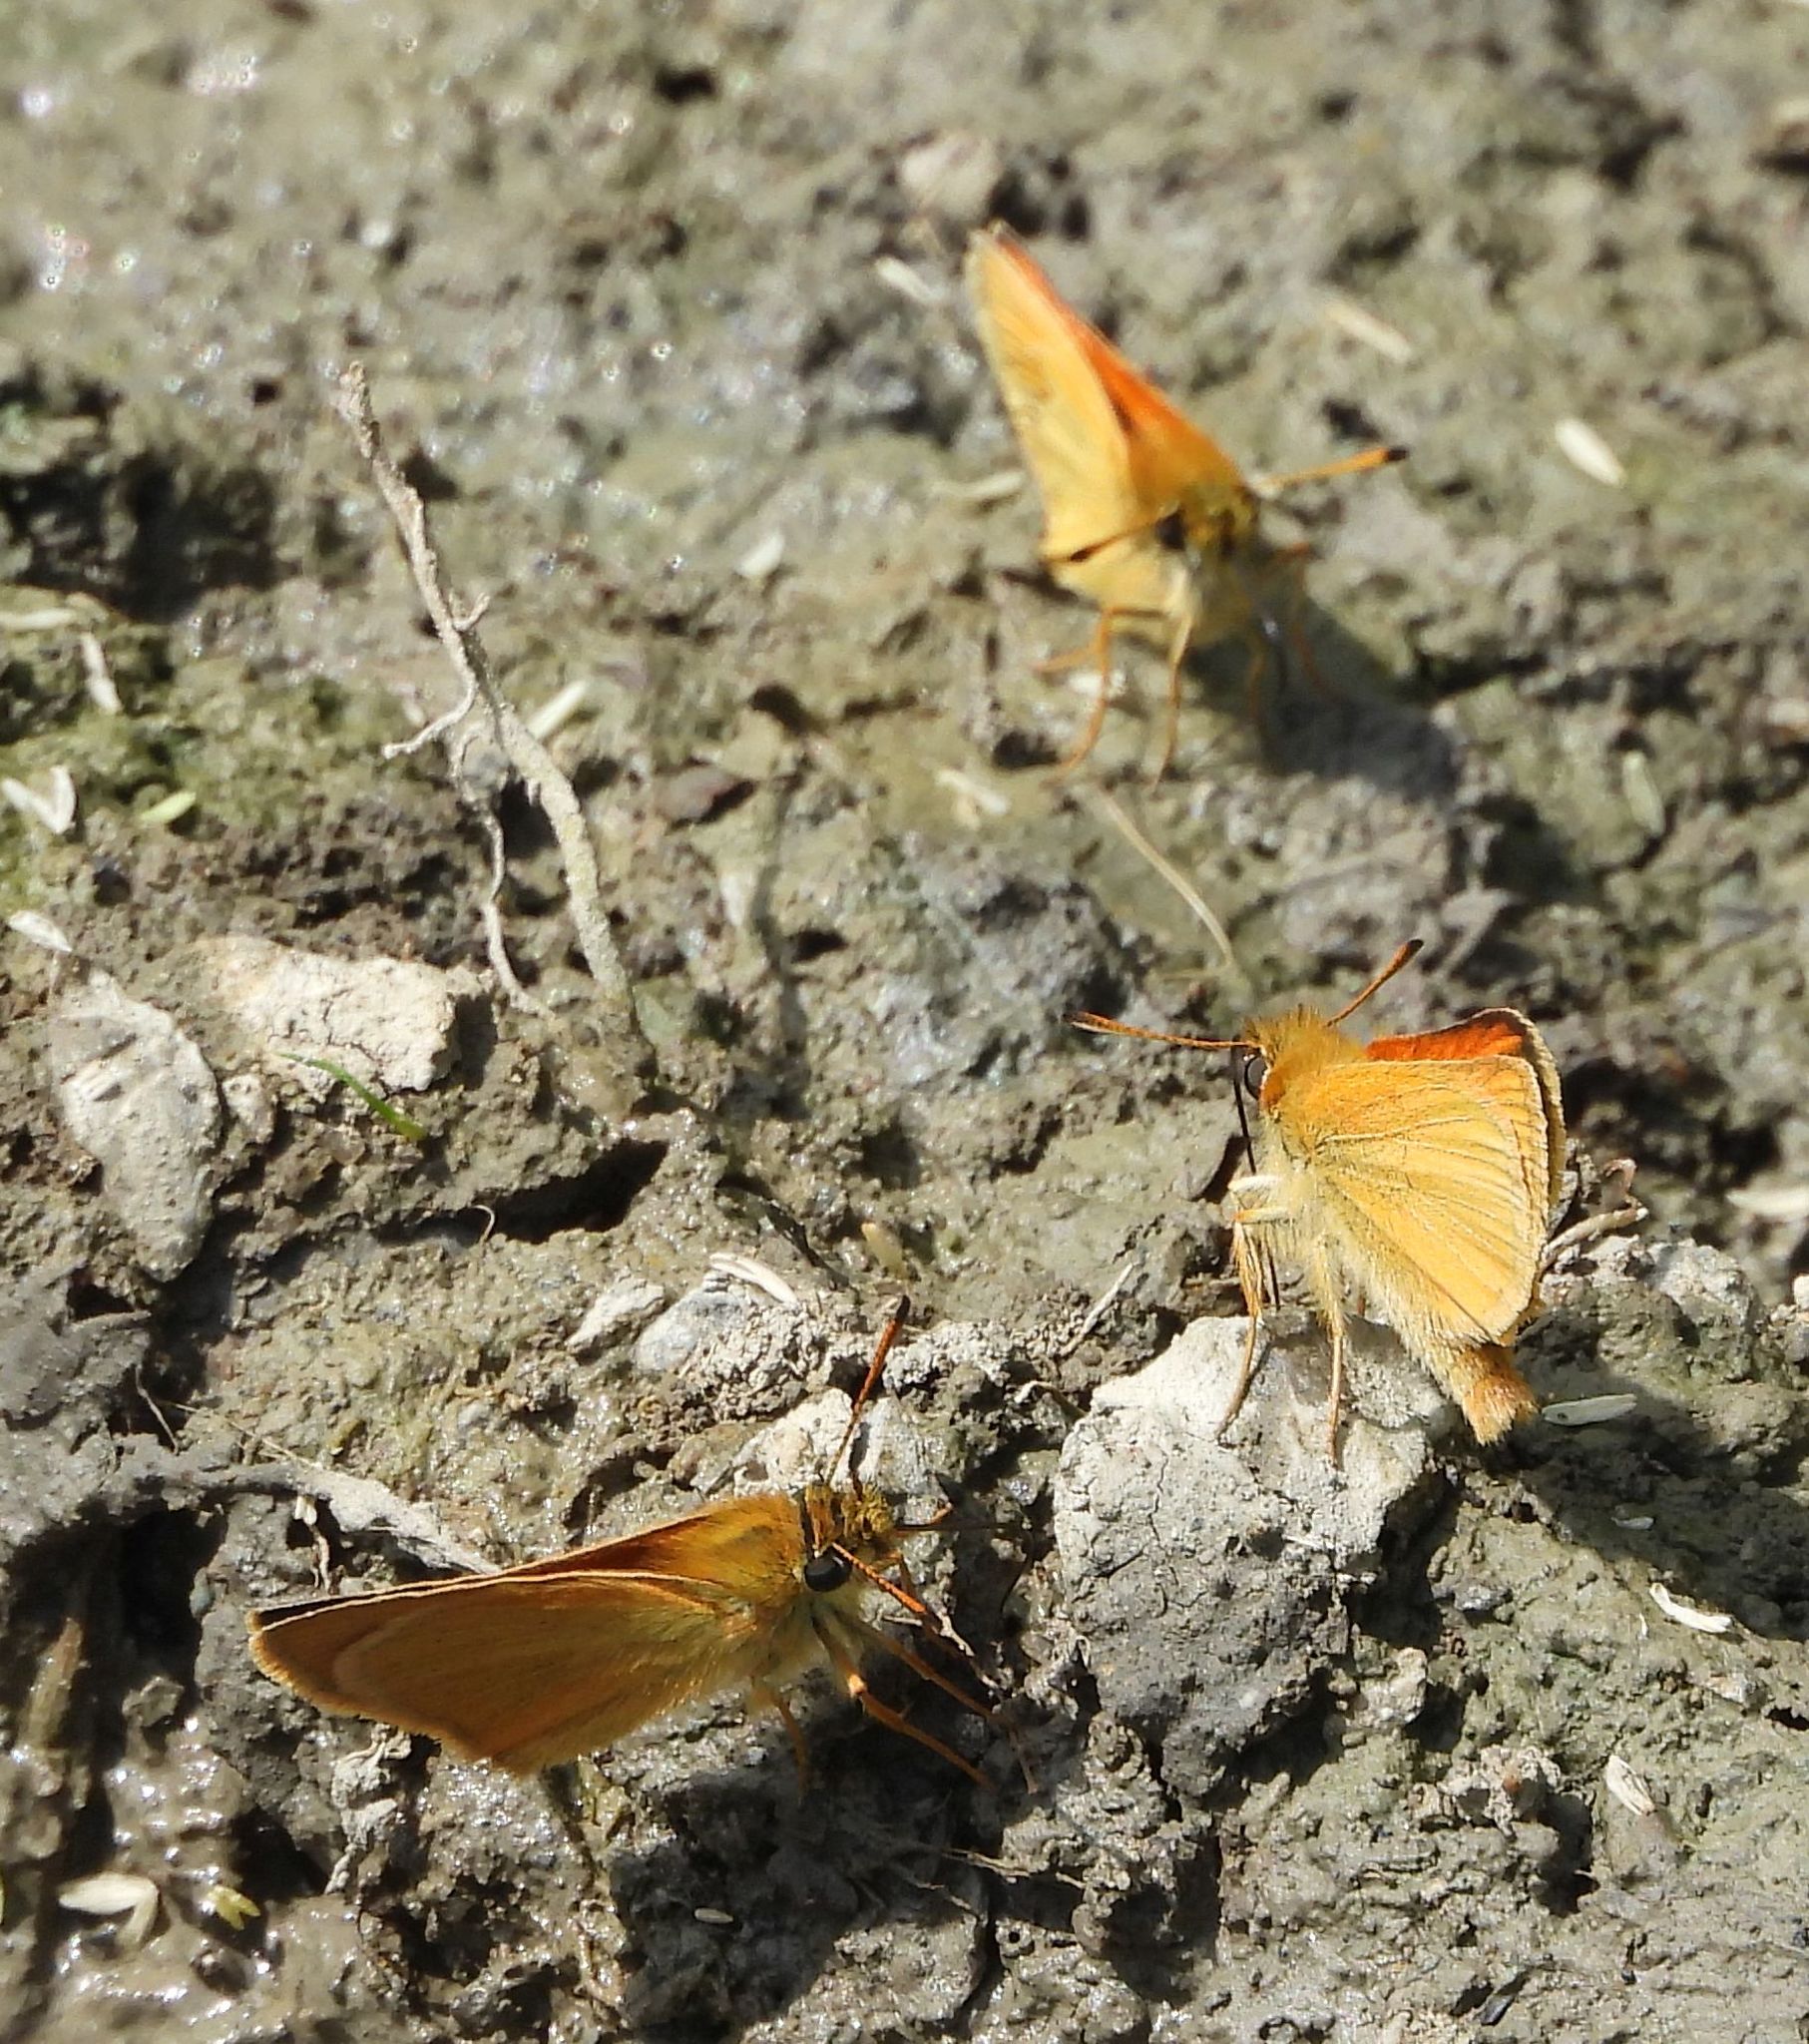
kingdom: Animalia
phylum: Arthropoda
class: Insecta
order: Lepidoptera
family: Hesperiidae
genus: Thymelicus
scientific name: Thymelicus lineola
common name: Essex skipper
